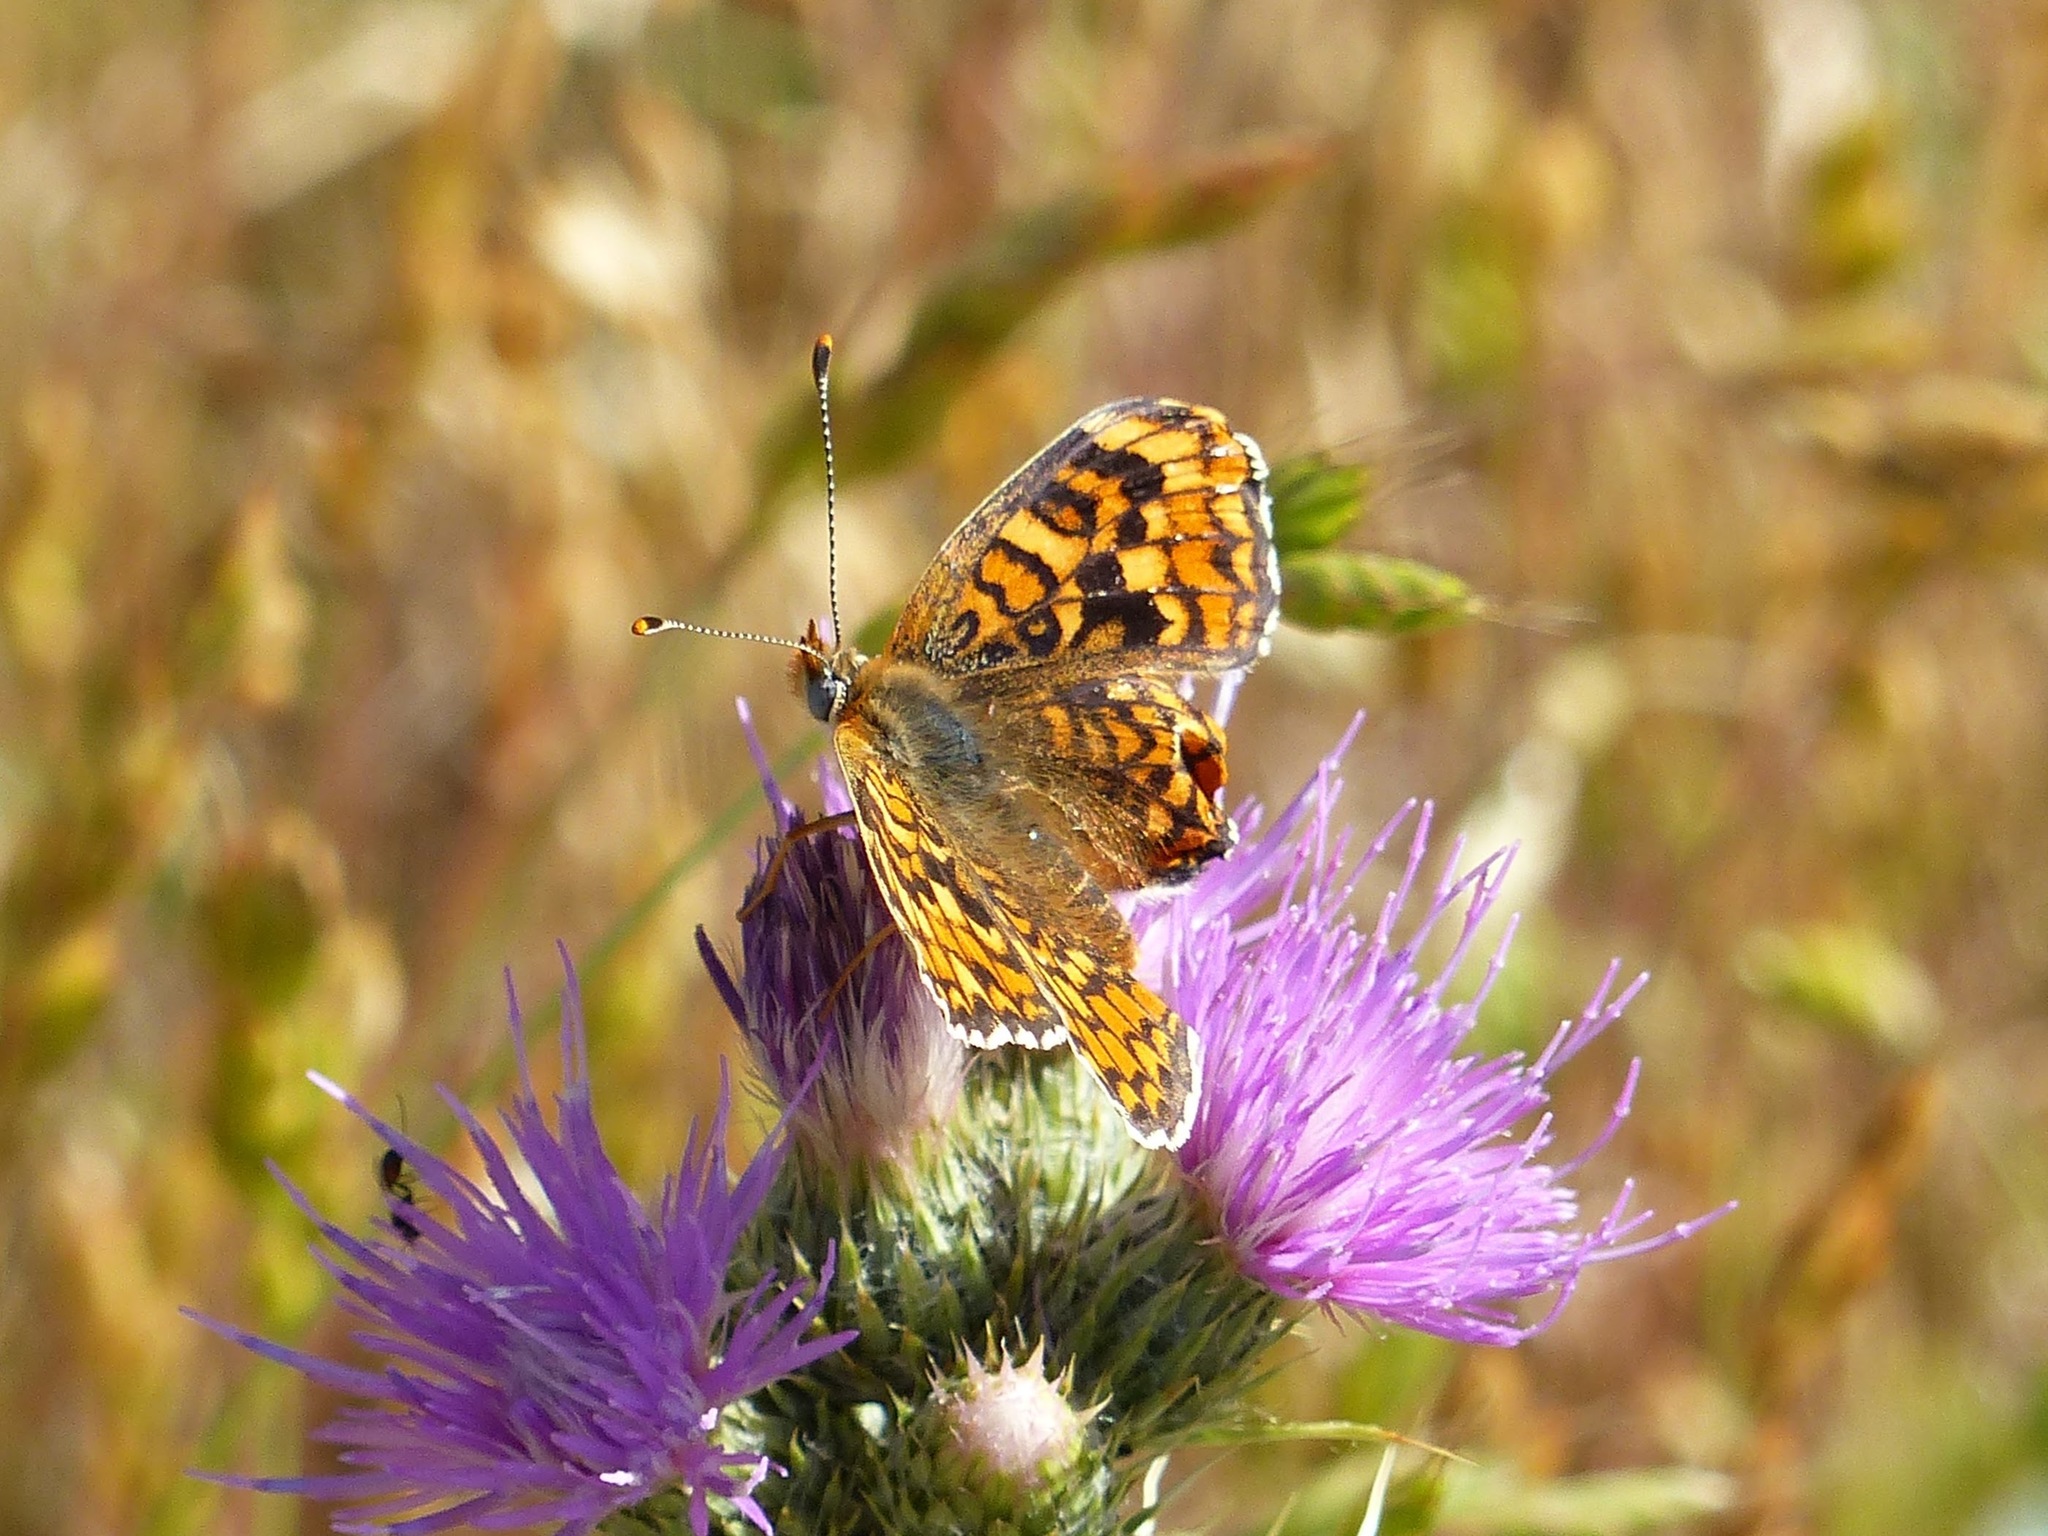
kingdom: Animalia
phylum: Arthropoda
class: Insecta
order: Lepidoptera
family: Nymphalidae
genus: Melitaea
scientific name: Melitaea phoebe
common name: Knapweed fritillary
